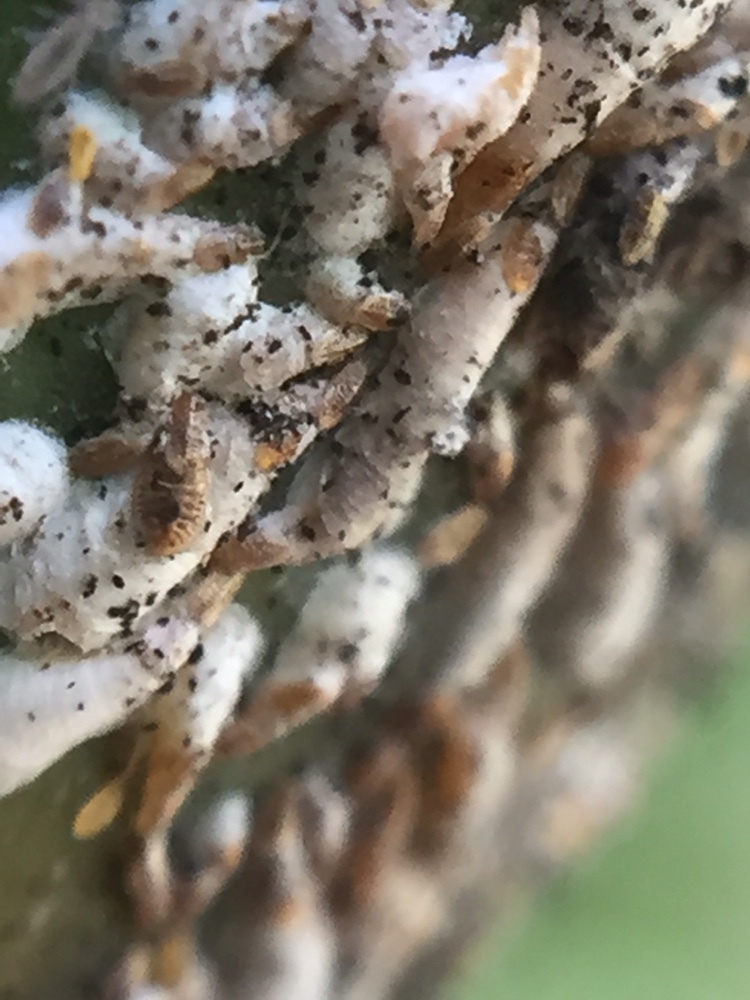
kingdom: Animalia
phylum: Arthropoda
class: Insecta
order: Hemiptera
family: Diaspididae
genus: Kuwanaspis
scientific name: Kuwanaspis pseudoleucaspis
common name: Bamboo diaspidid
